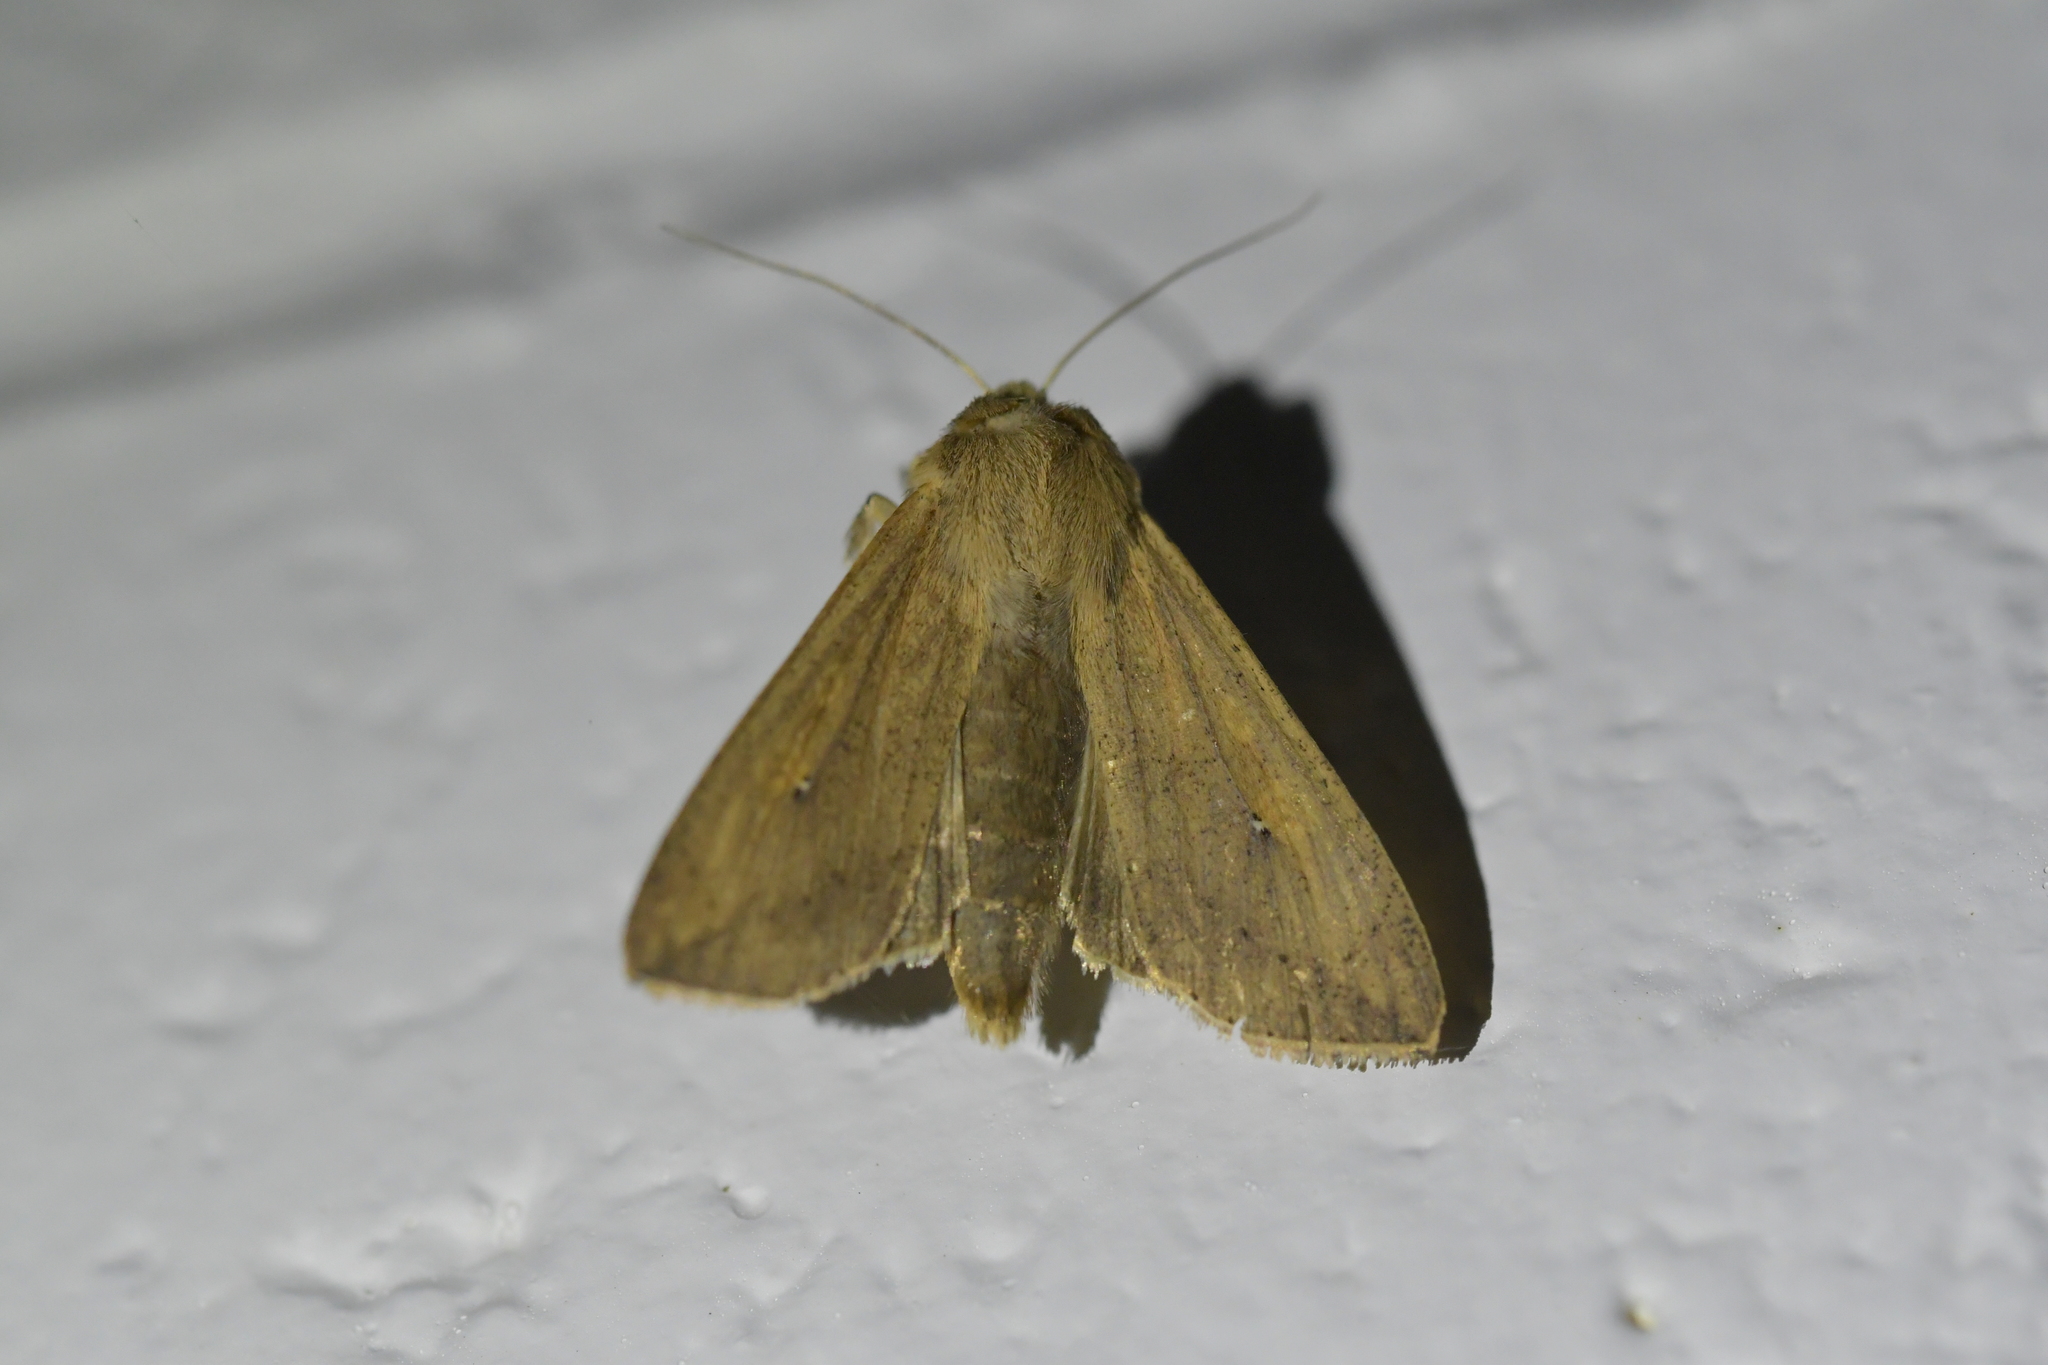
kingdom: Animalia
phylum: Arthropoda
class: Insecta
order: Lepidoptera
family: Noctuidae
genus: Mythimna
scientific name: Mythimna separata
